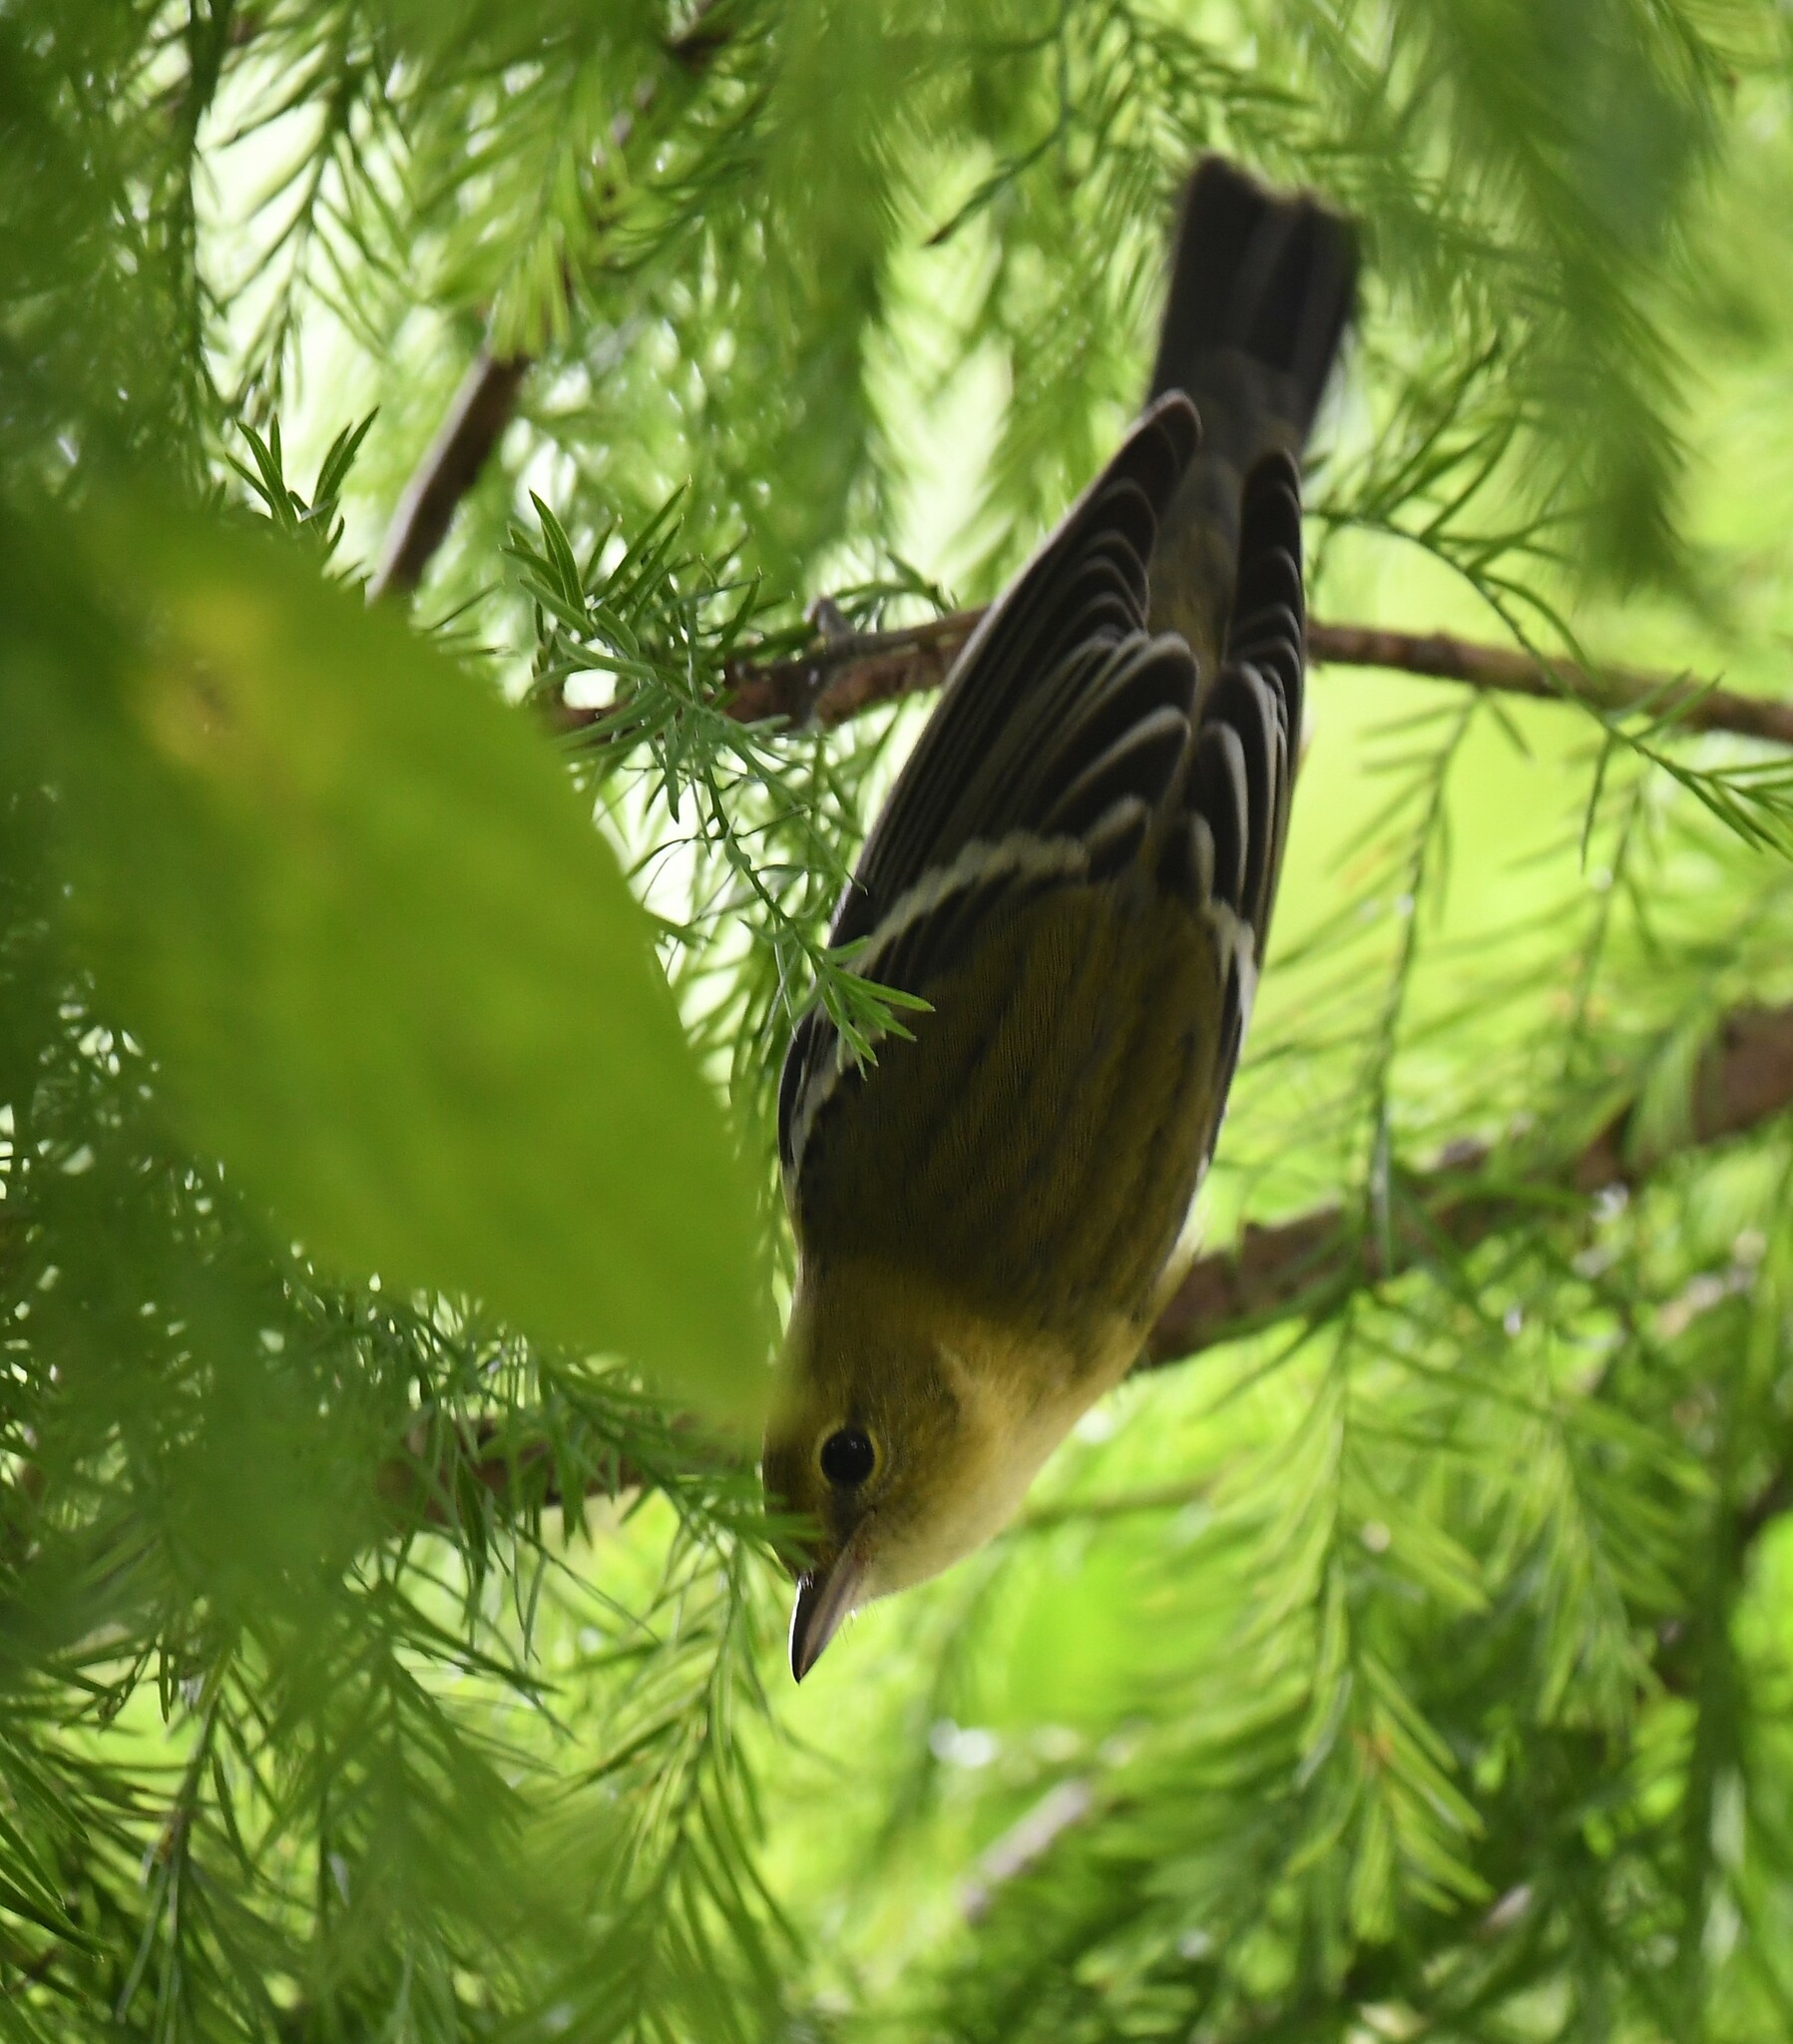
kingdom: Animalia
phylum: Chordata
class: Aves
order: Passeriformes
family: Parulidae
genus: Setophaga
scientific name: Setophaga castanea
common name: Bay-breasted warbler
